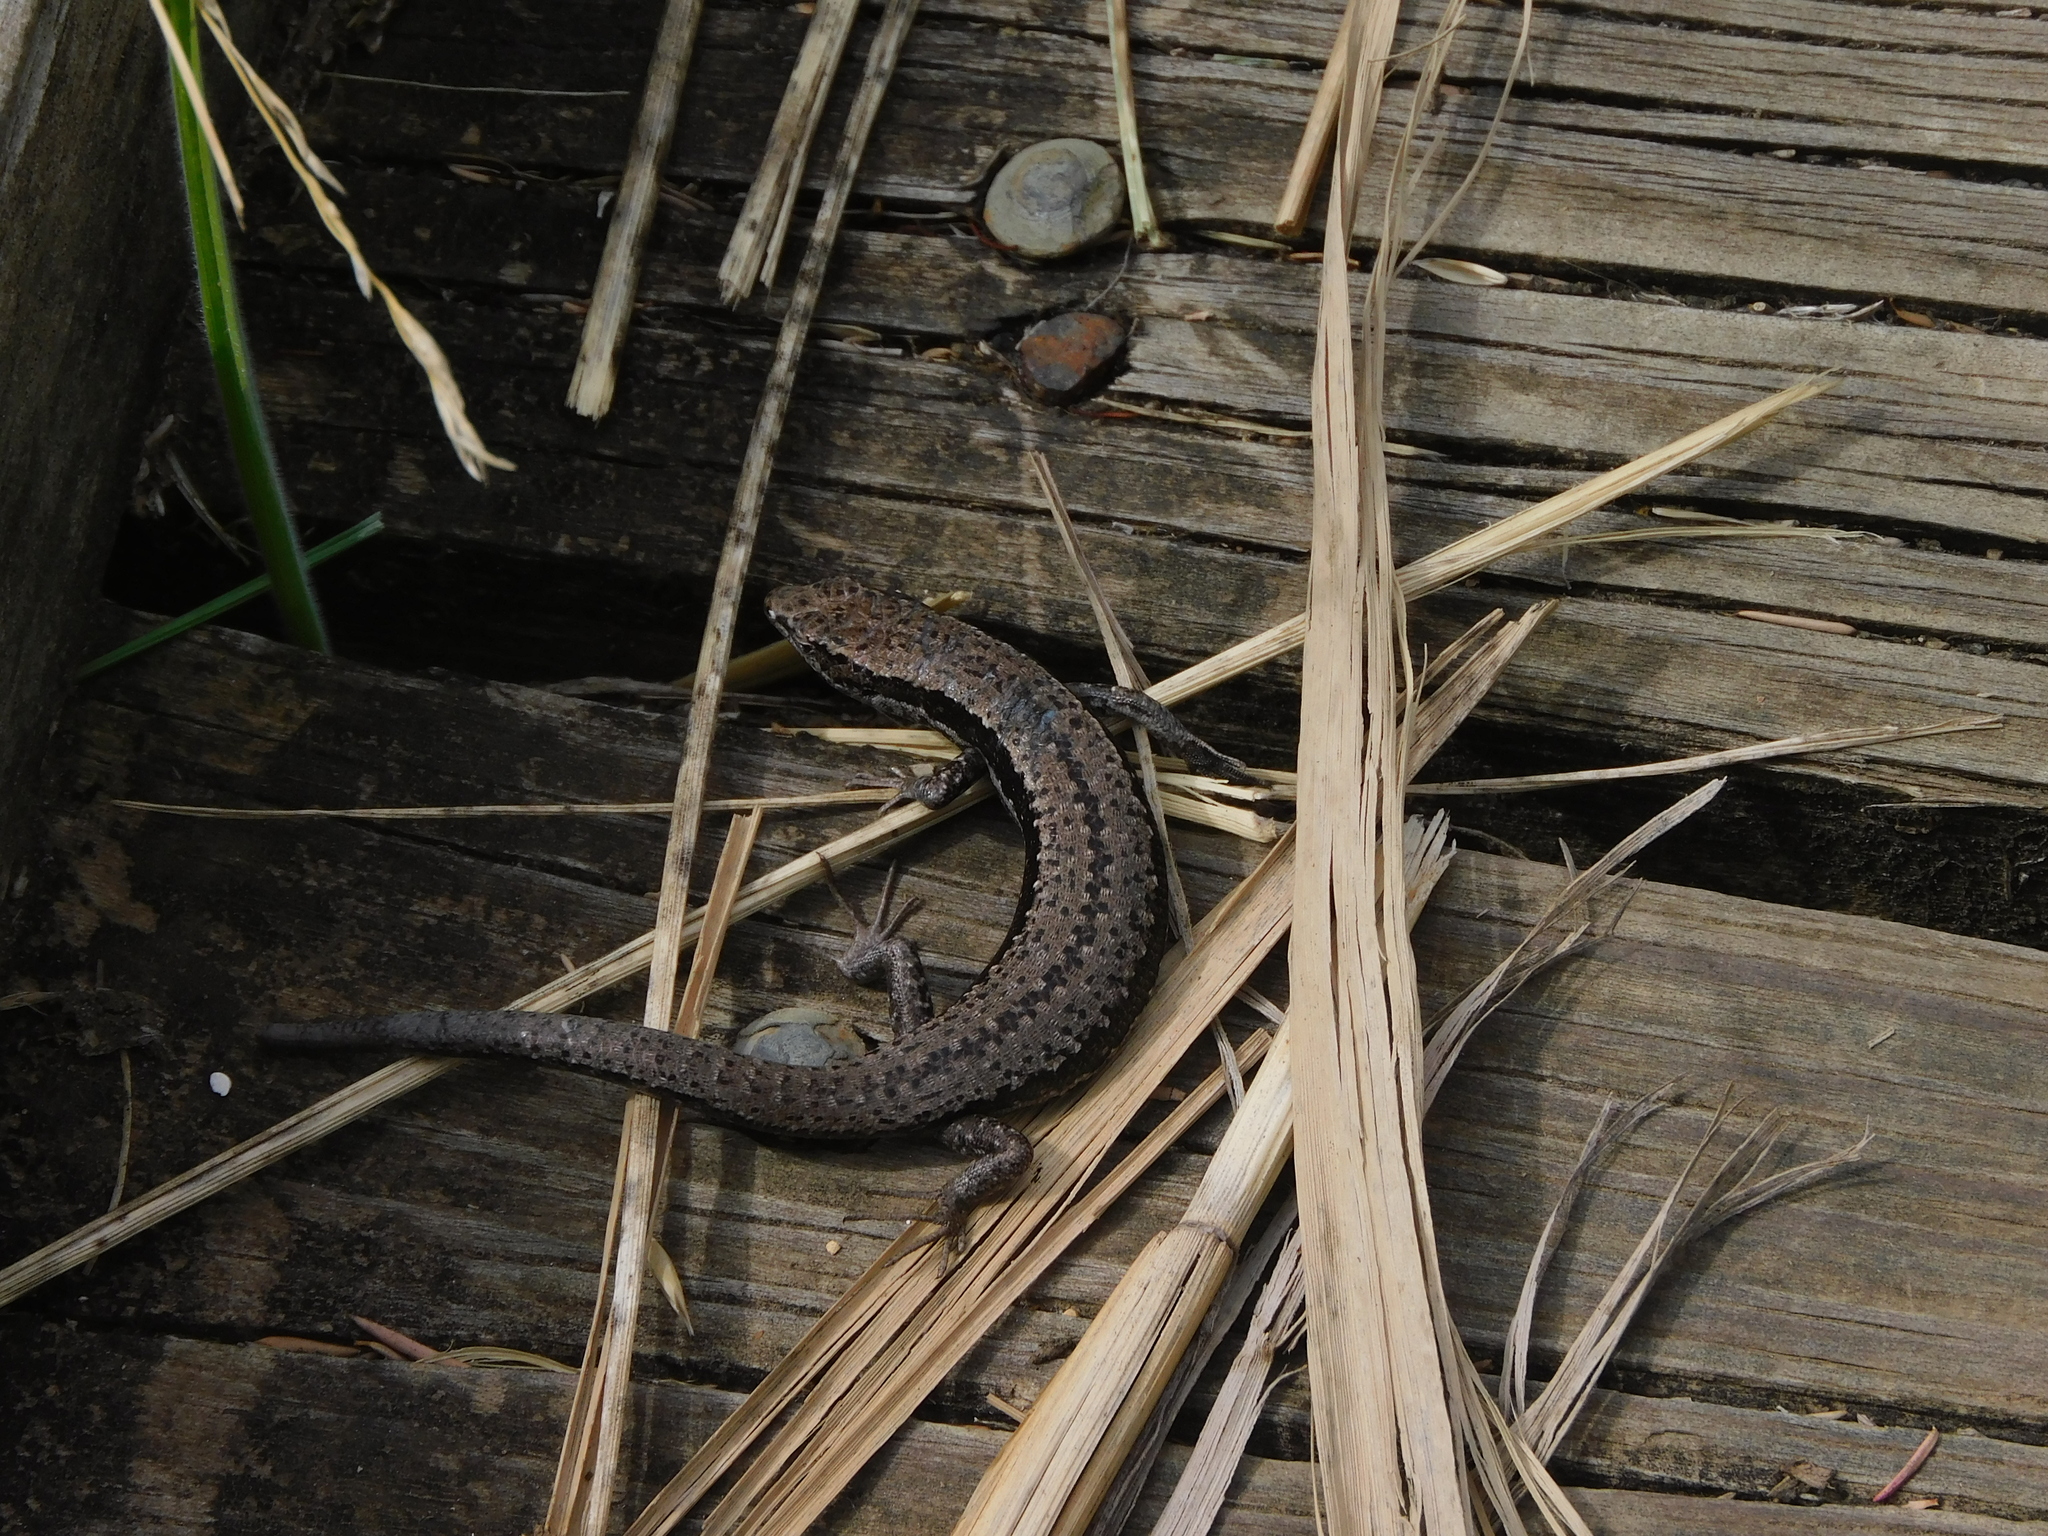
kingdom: Animalia
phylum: Chordata
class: Squamata
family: Scincidae
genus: Carinascincus
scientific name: Carinascincus pretiosus
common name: Agile cool-skink
